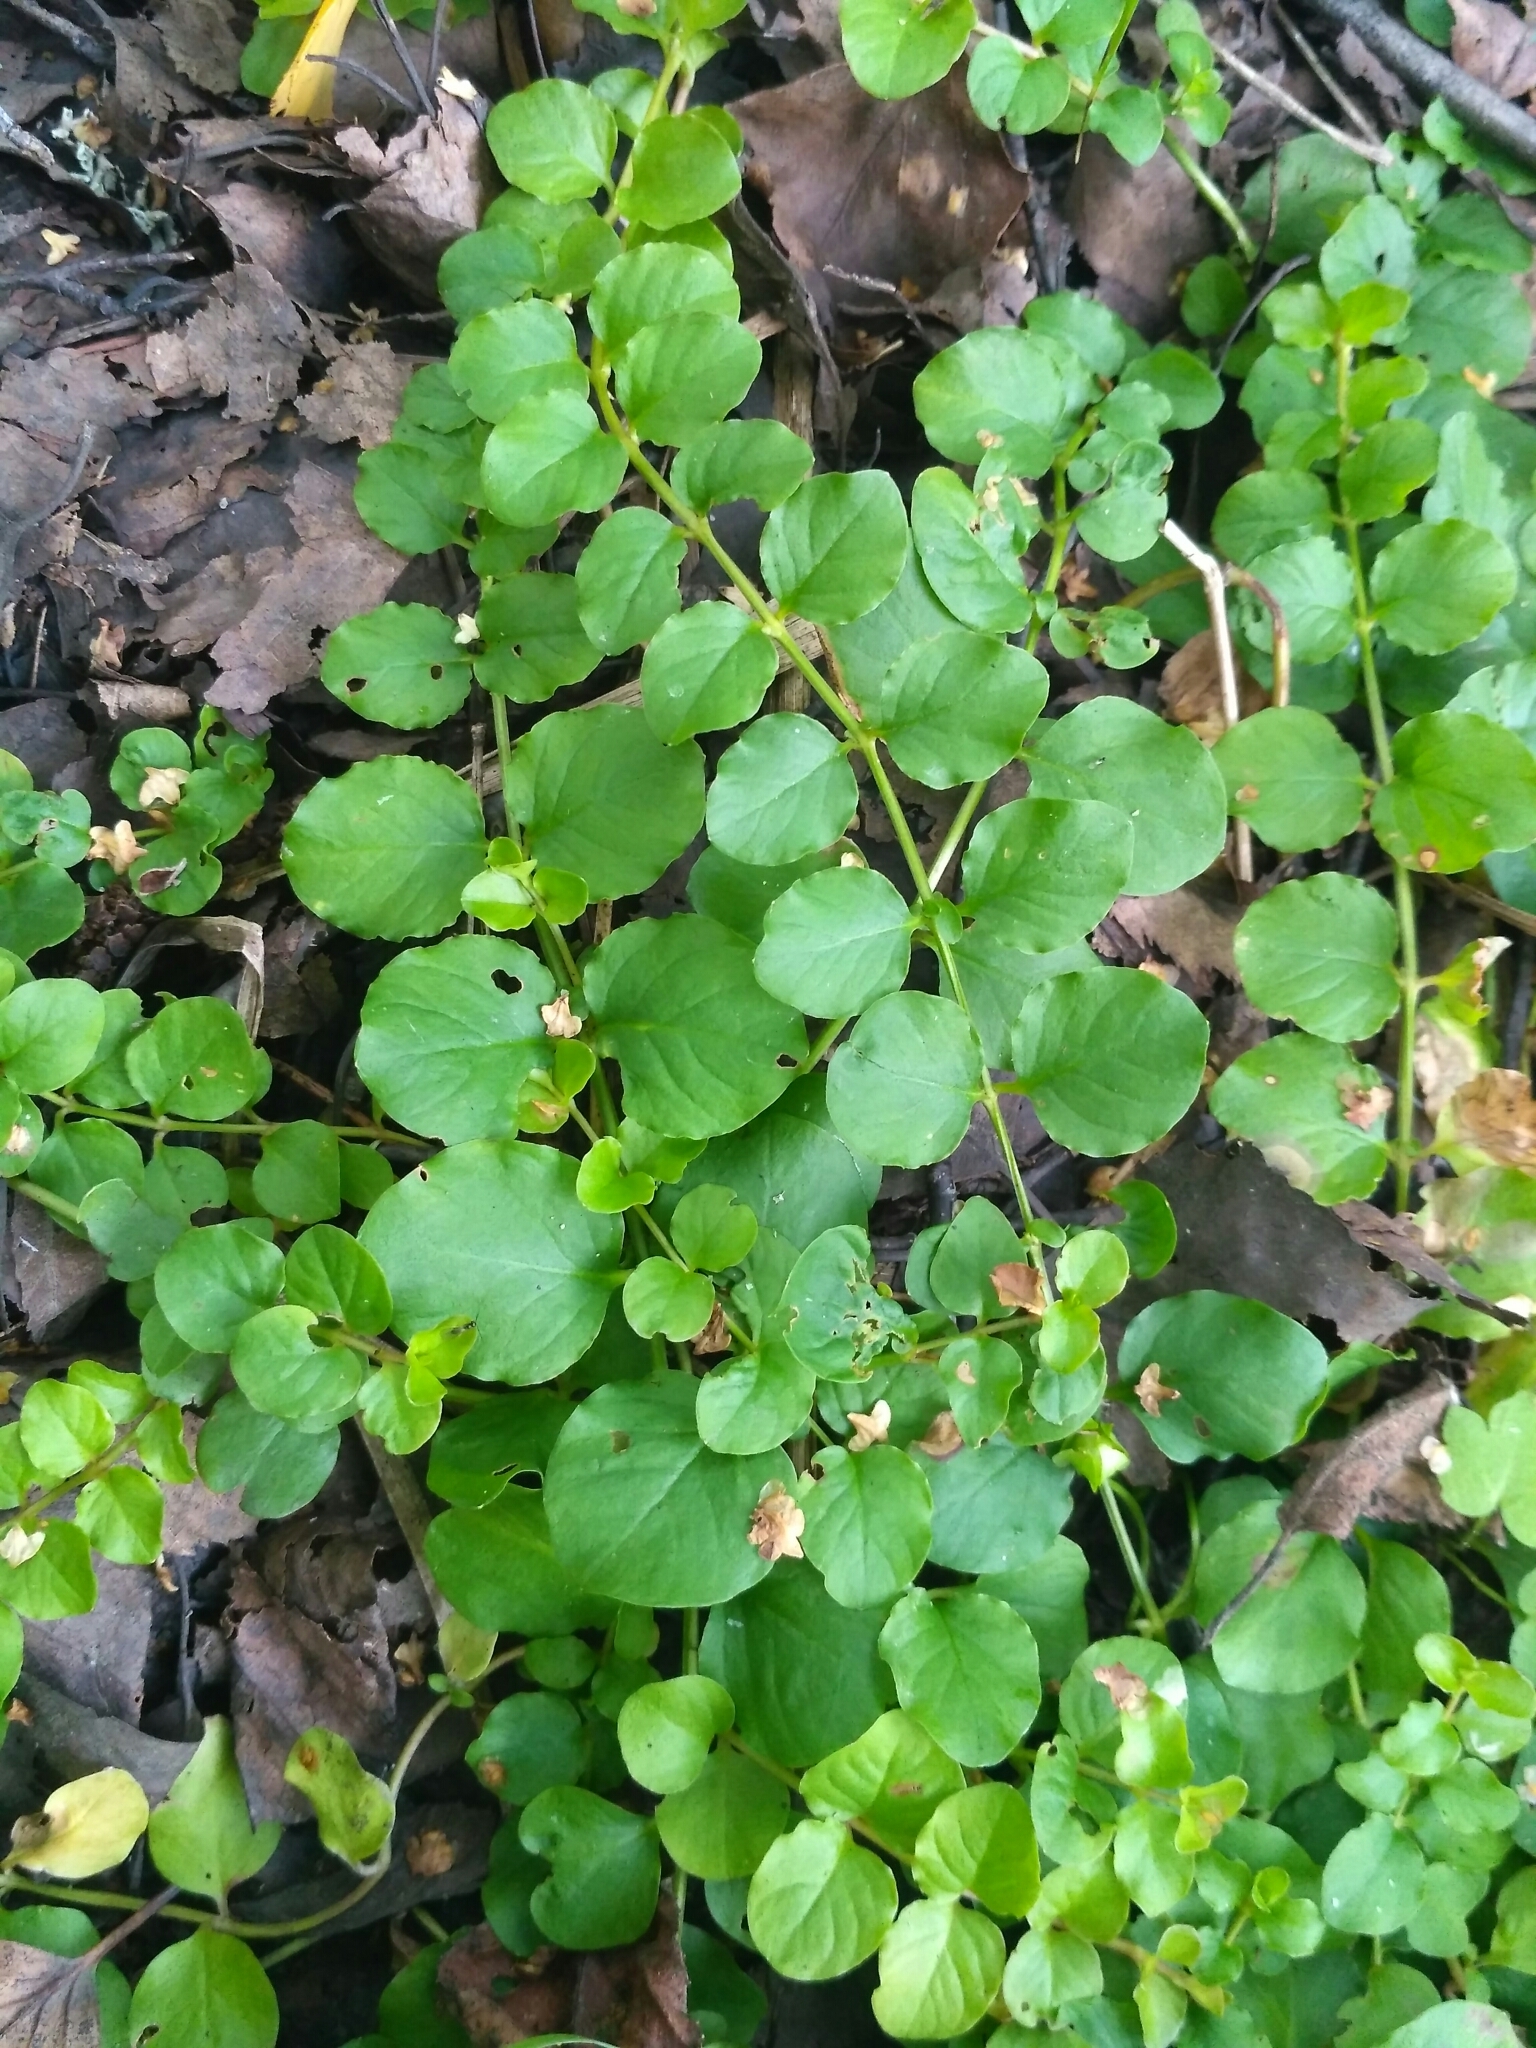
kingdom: Plantae
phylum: Tracheophyta
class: Magnoliopsida
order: Ericales
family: Primulaceae
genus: Lysimachia
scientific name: Lysimachia nummularia
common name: Moneywort
